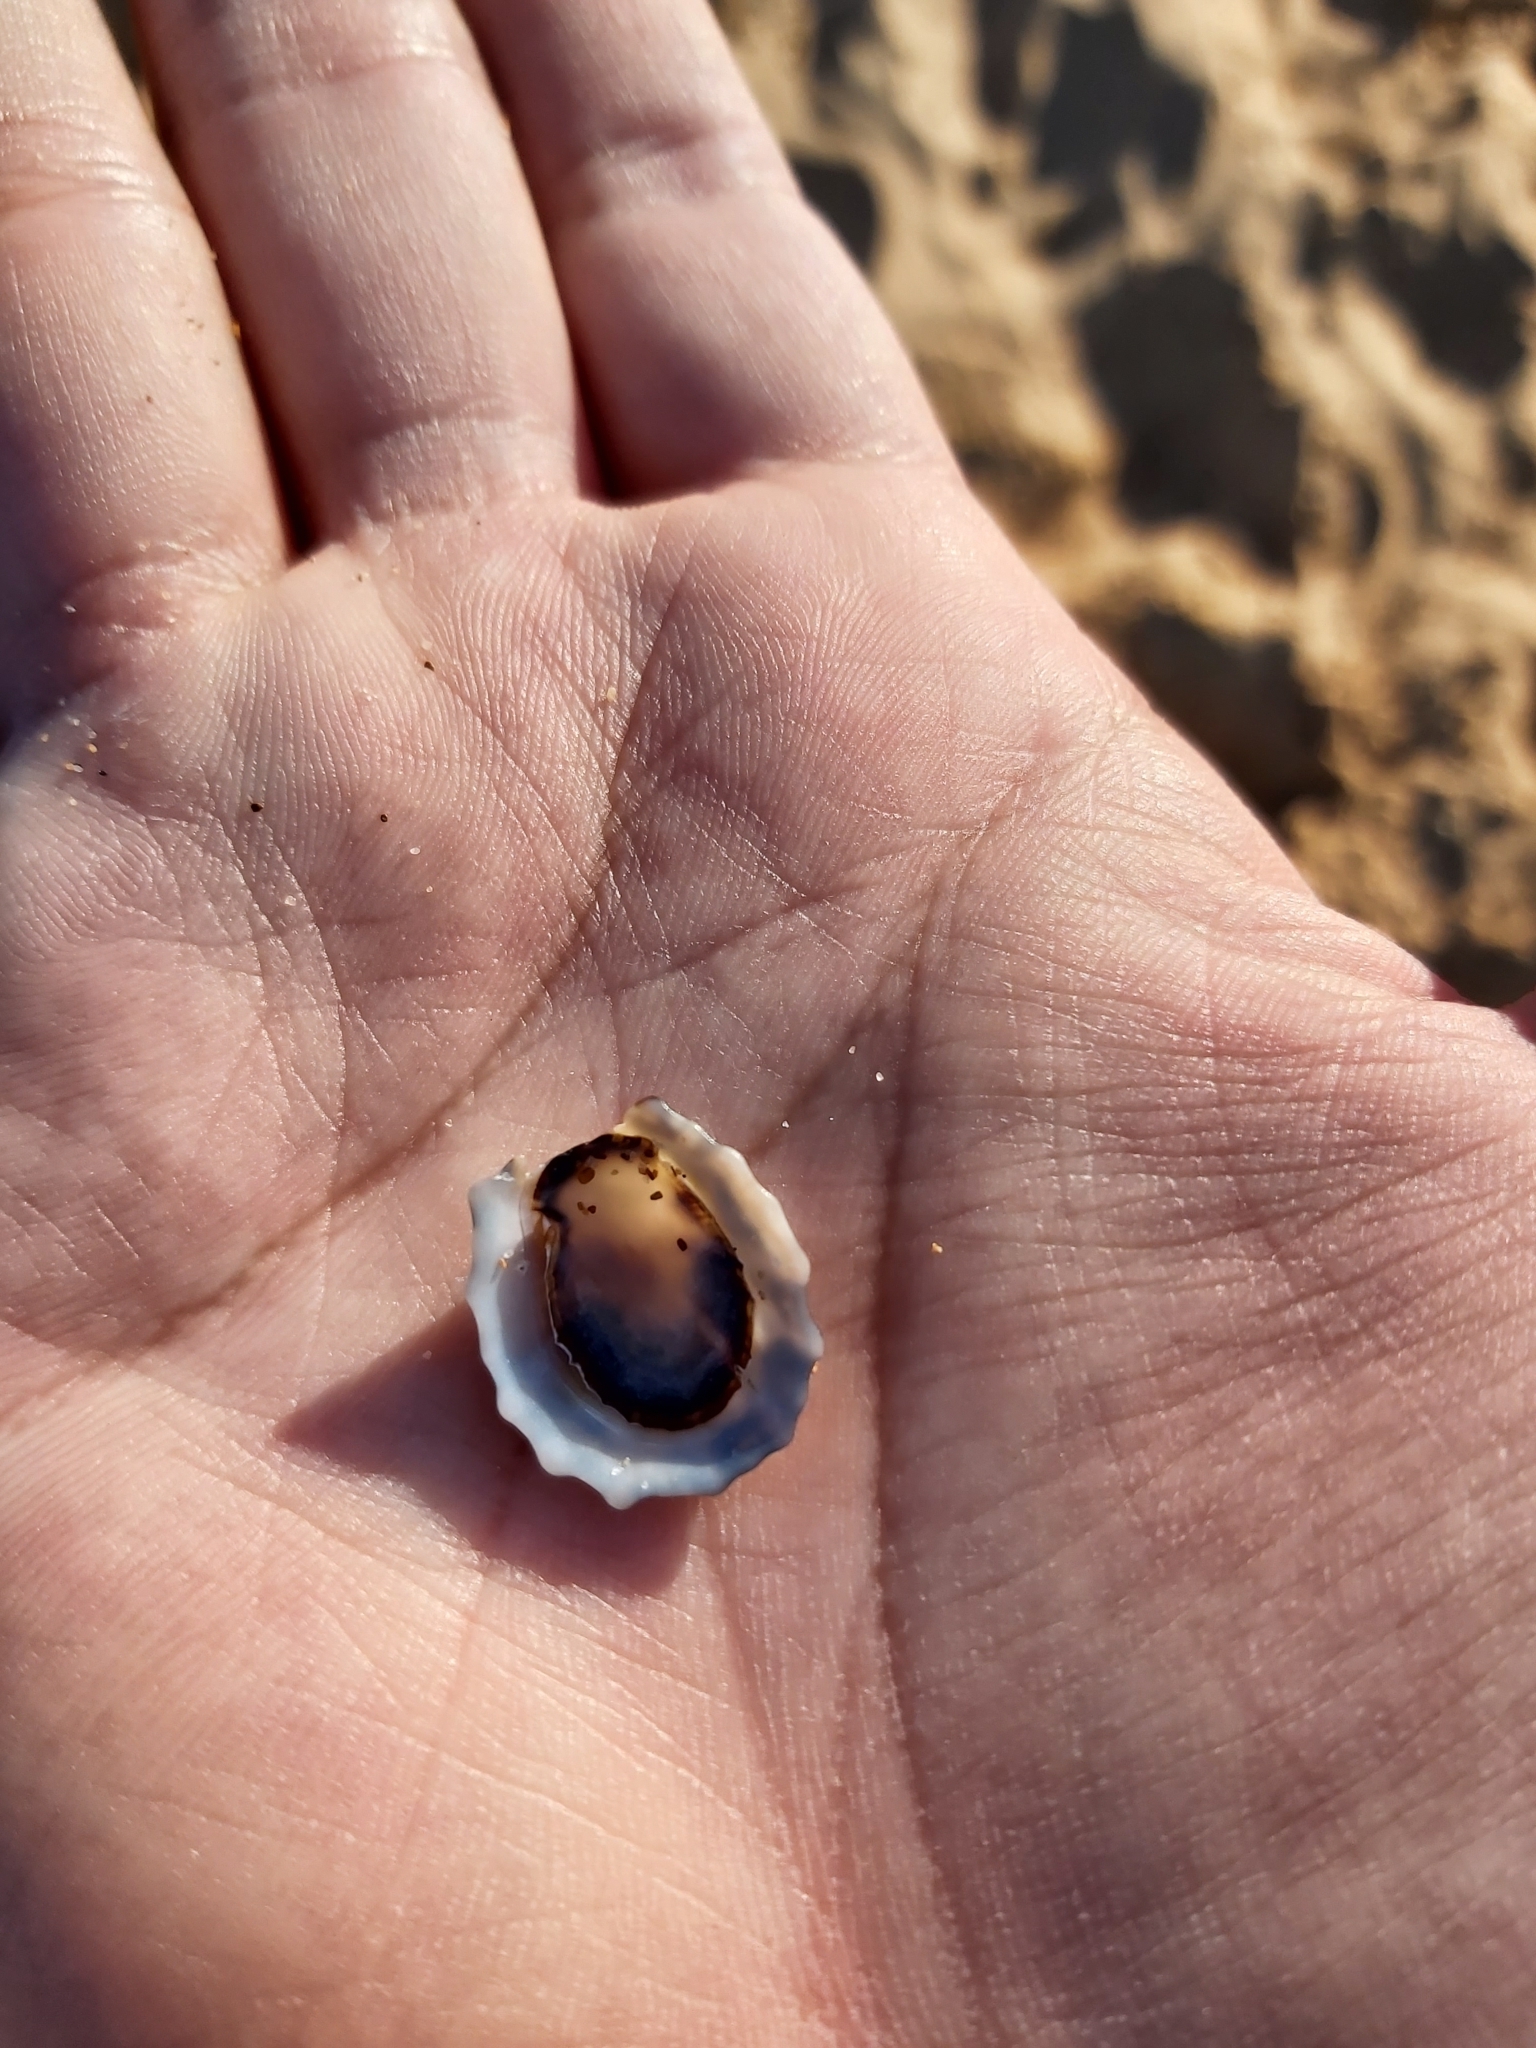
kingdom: Animalia
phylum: Mollusca
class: Gastropoda
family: Lottiidae
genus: Patelloida
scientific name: Patelloida alticostata
